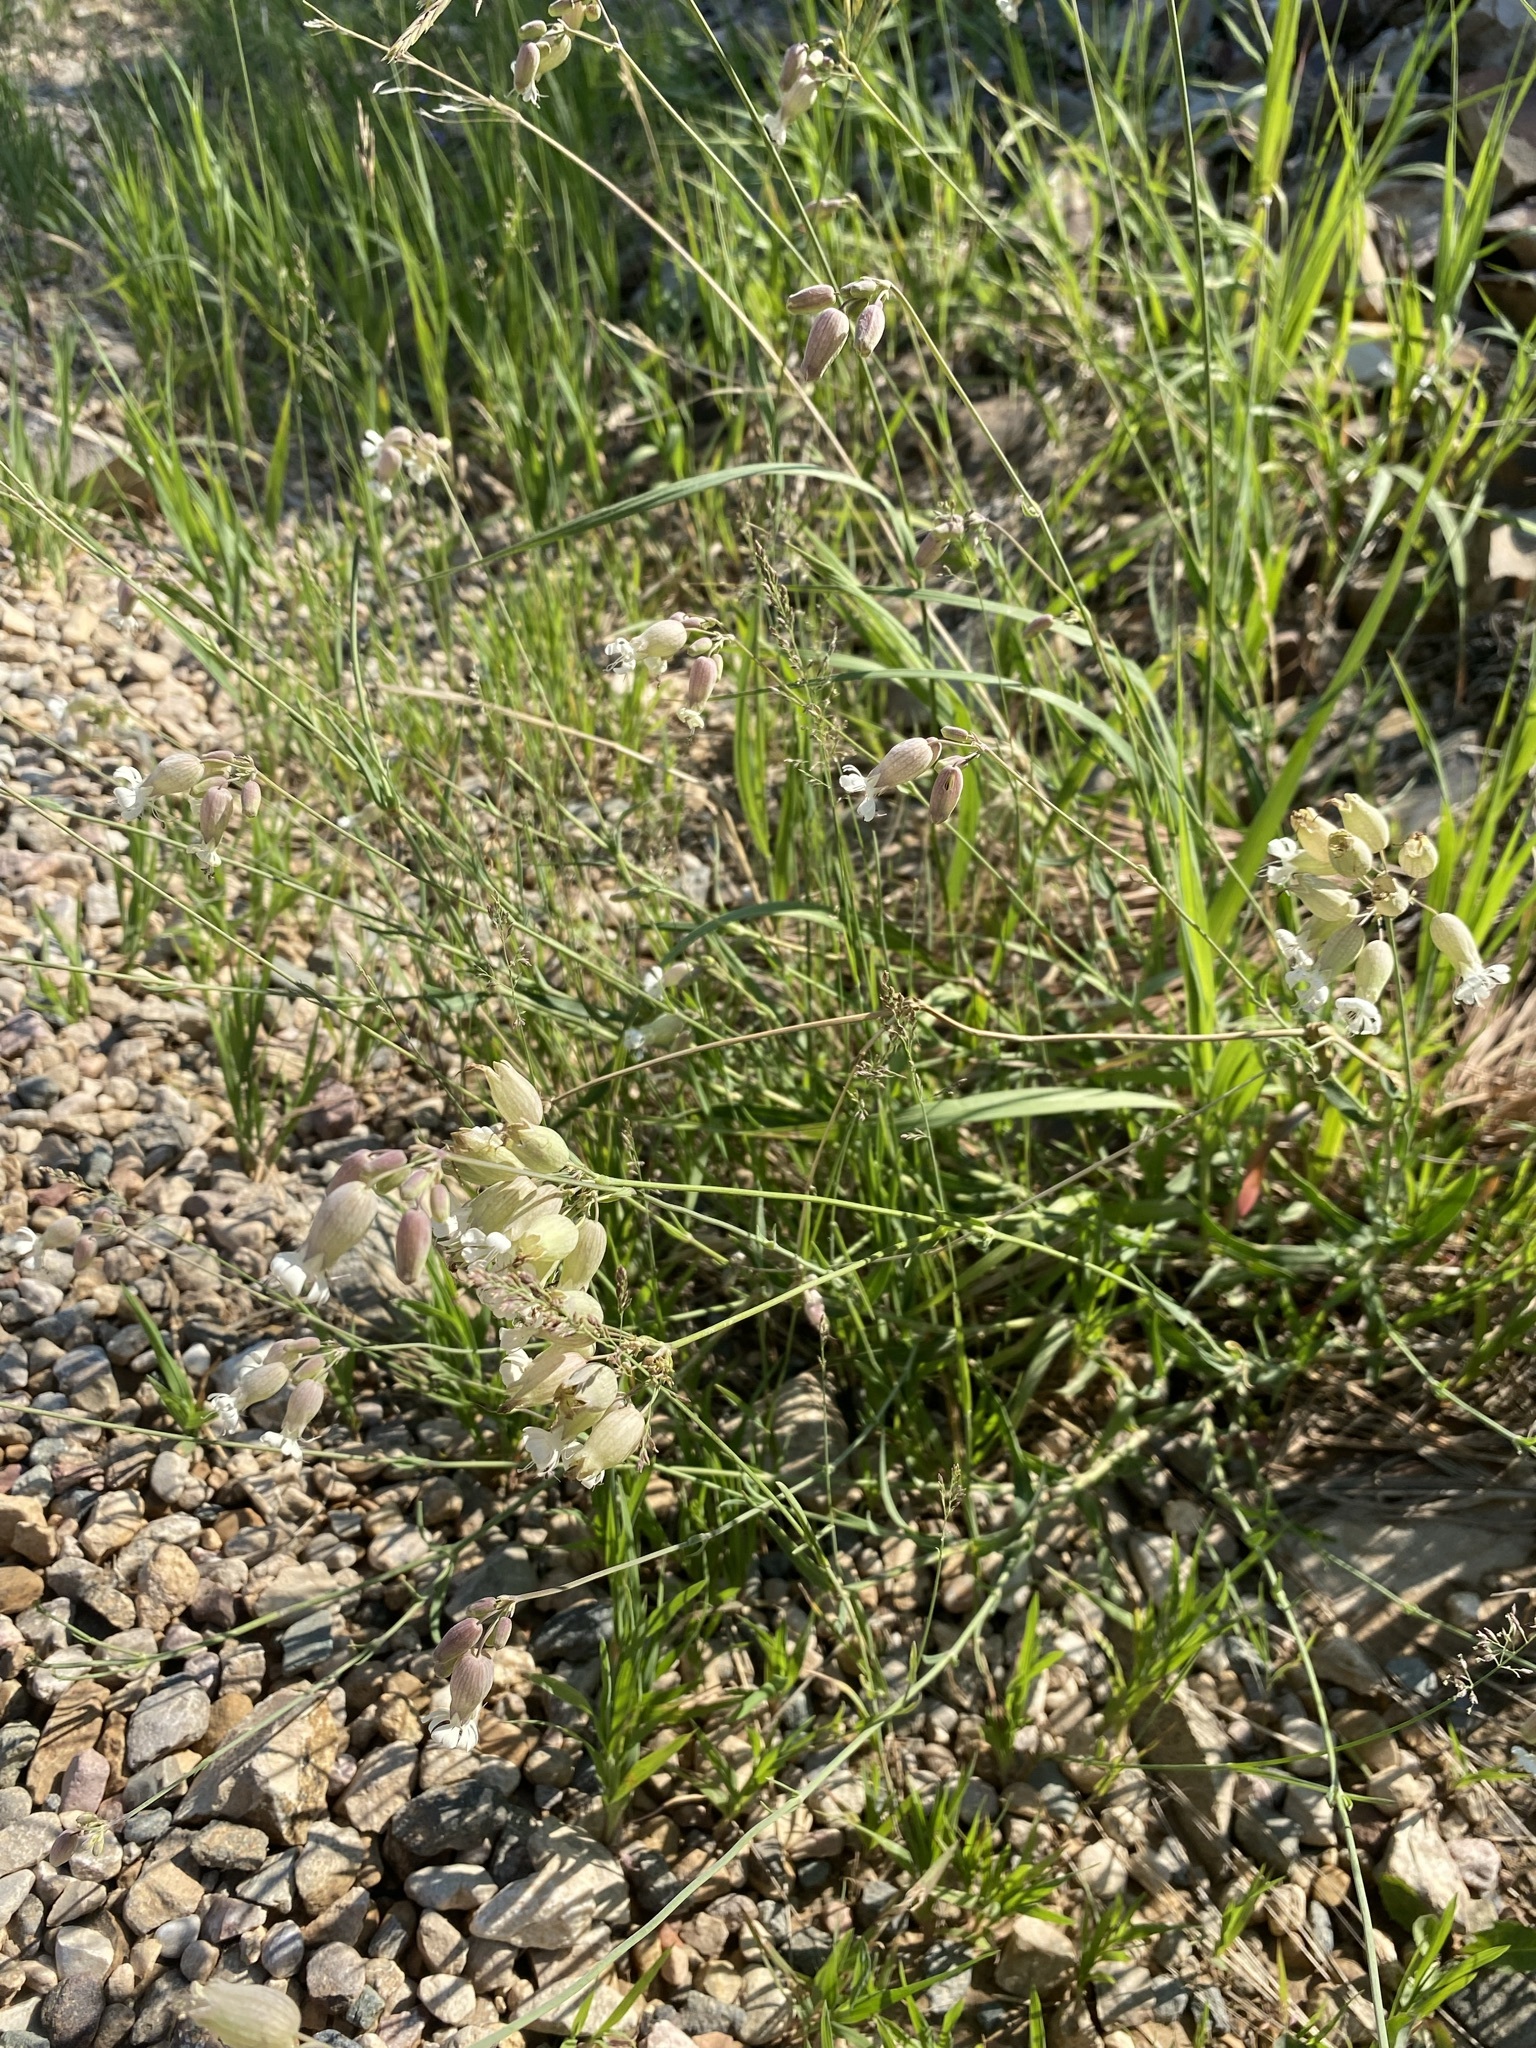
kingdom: Plantae
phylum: Tracheophyta
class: Magnoliopsida
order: Caryophyllales
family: Caryophyllaceae
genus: Silene
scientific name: Silene vulgaris
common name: Bladder campion
